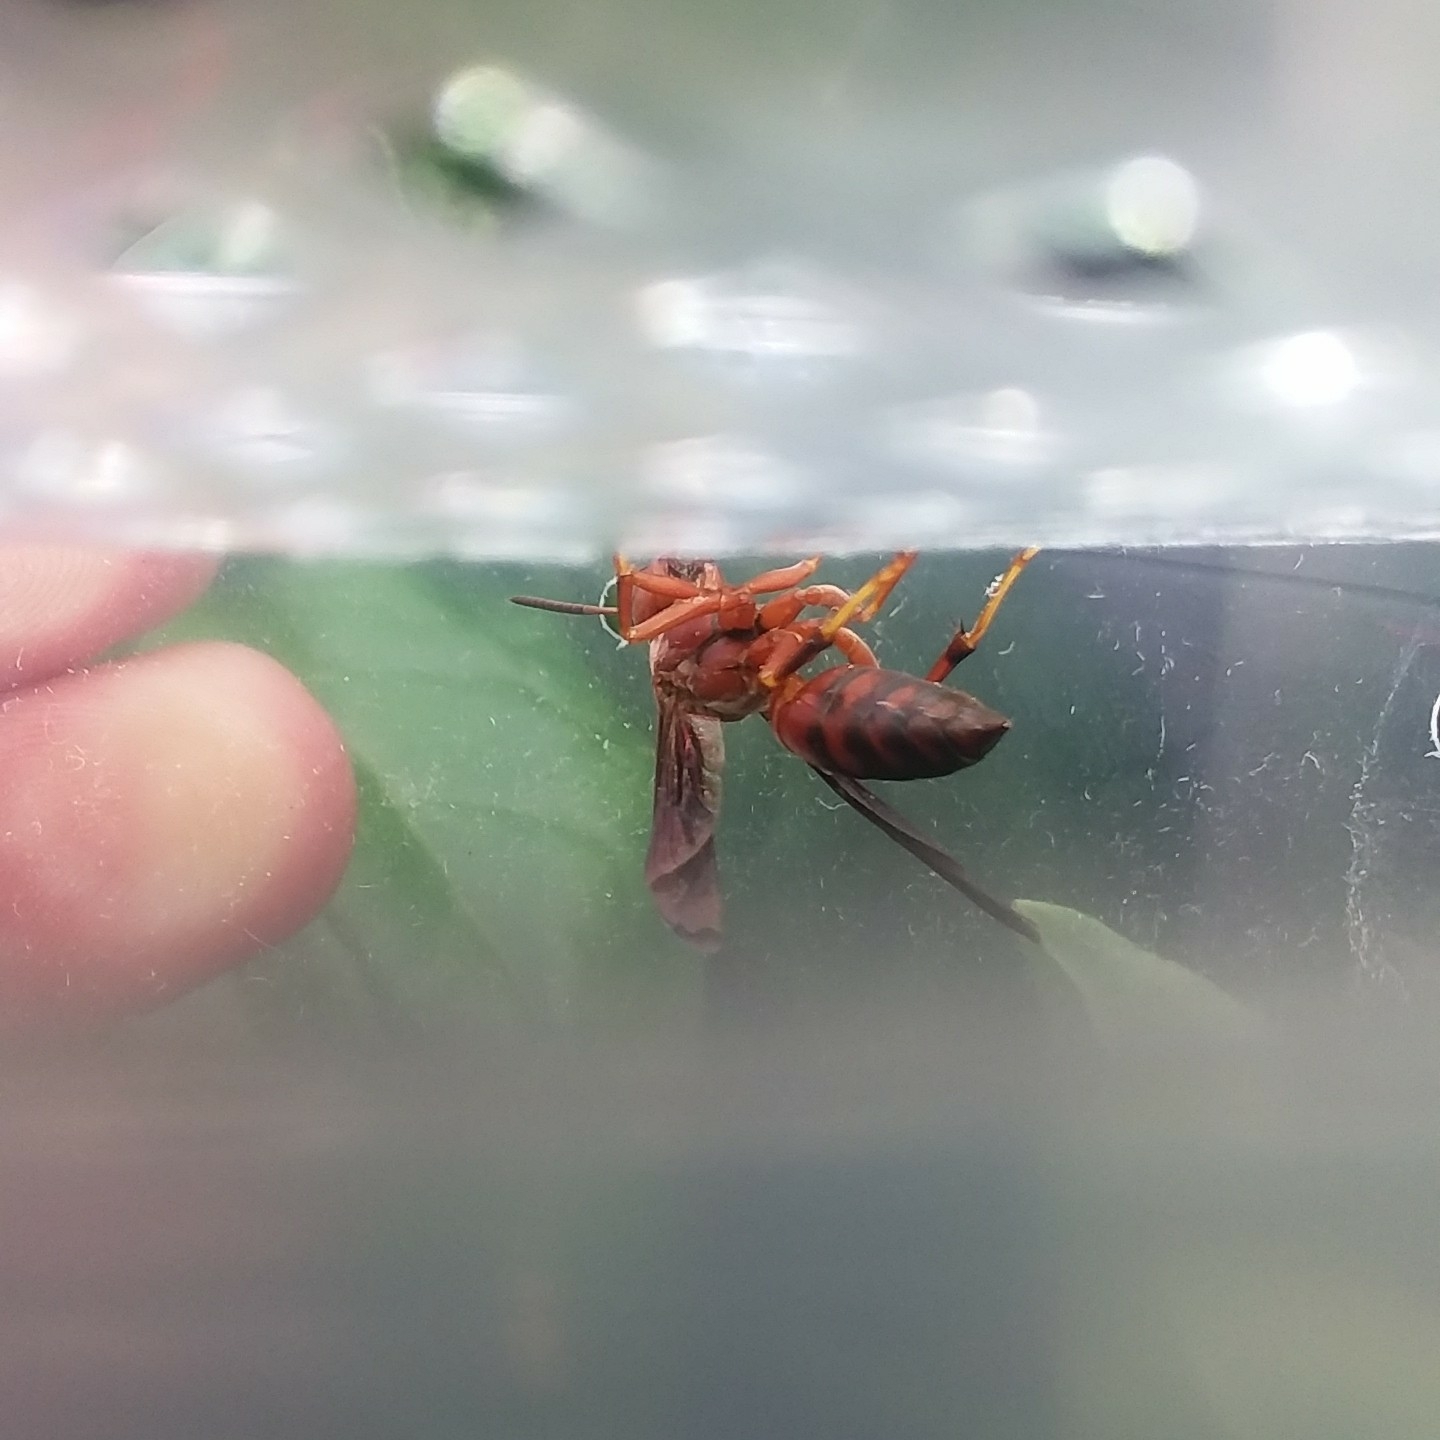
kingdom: Animalia
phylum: Arthropoda
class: Insecta
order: Hymenoptera
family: Eumenidae
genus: Polistes
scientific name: Polistes metricus
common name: Metric paper wasp
